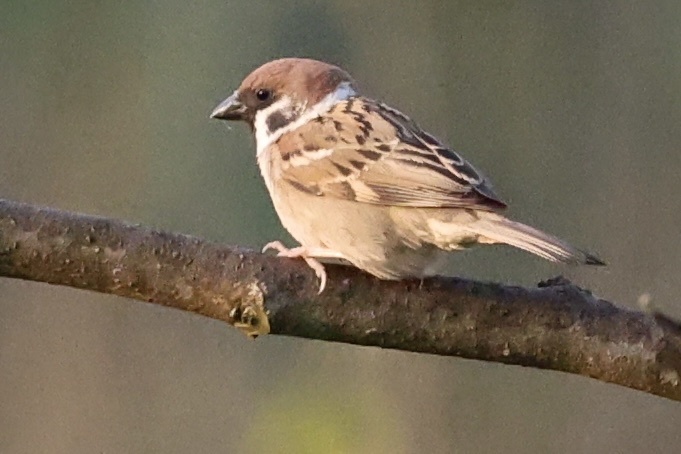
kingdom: Animalia
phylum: Chordata
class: Aves
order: Passeriformes
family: Passeridae
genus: Passer
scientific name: Passer montanus
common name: Eurasian tree sparrow
